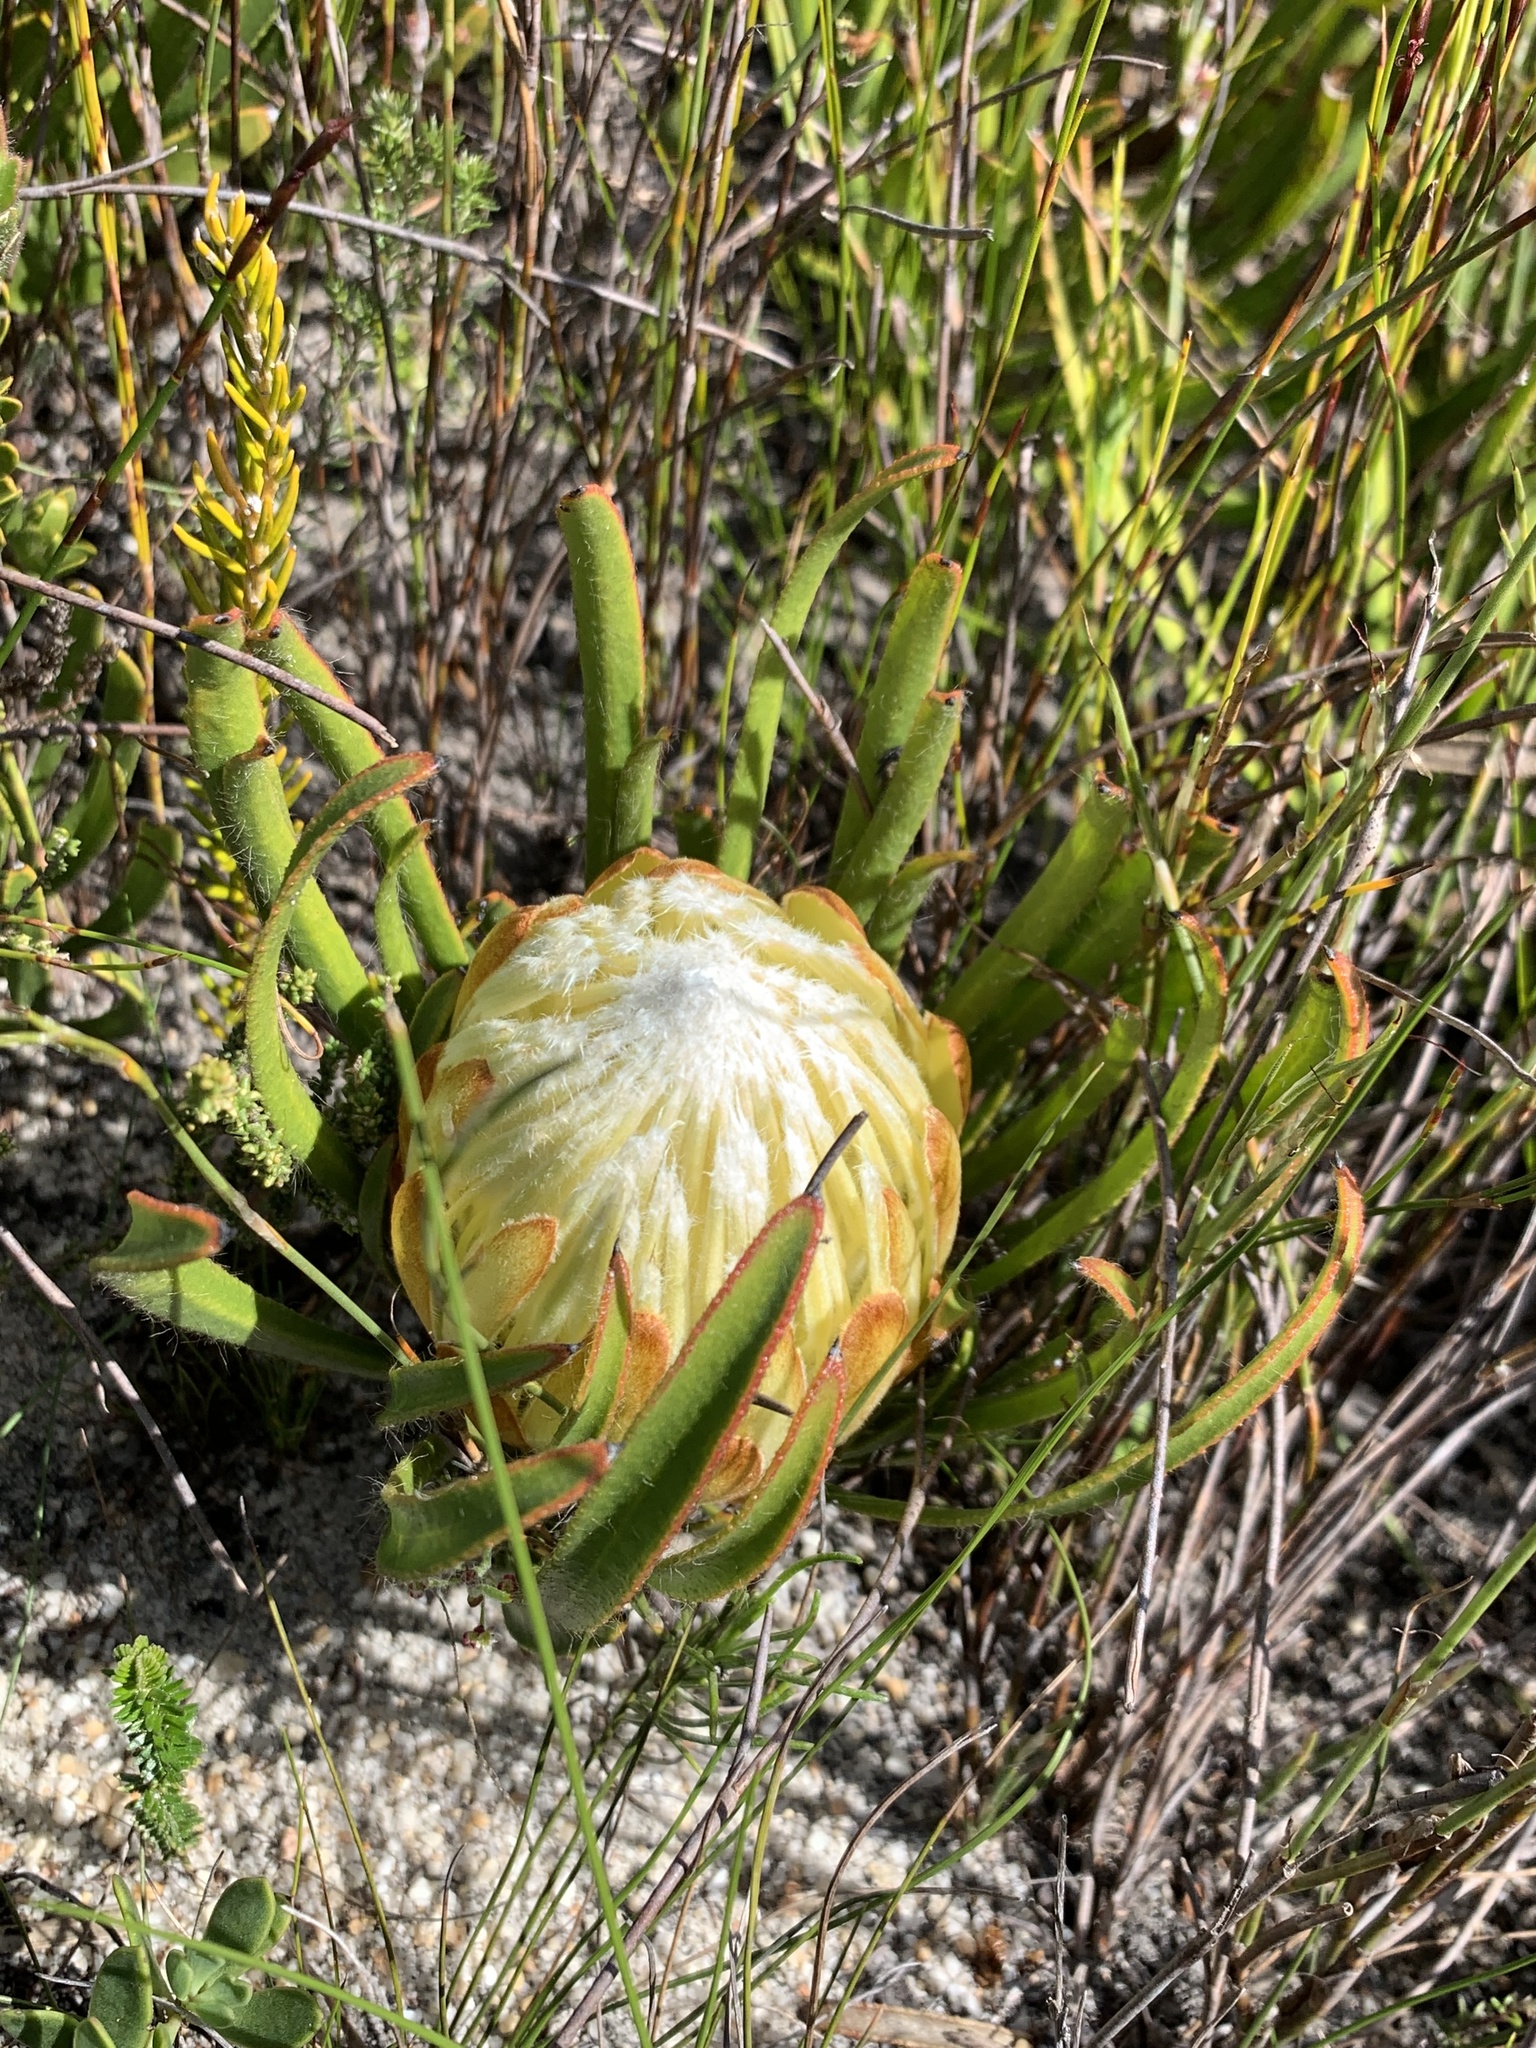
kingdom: Plantae
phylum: Tracheophyta
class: Magnoliopsida
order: Proteales
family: Proteaceae
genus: Protea
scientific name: Protea aspera
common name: Rough-leaf sugarbush
